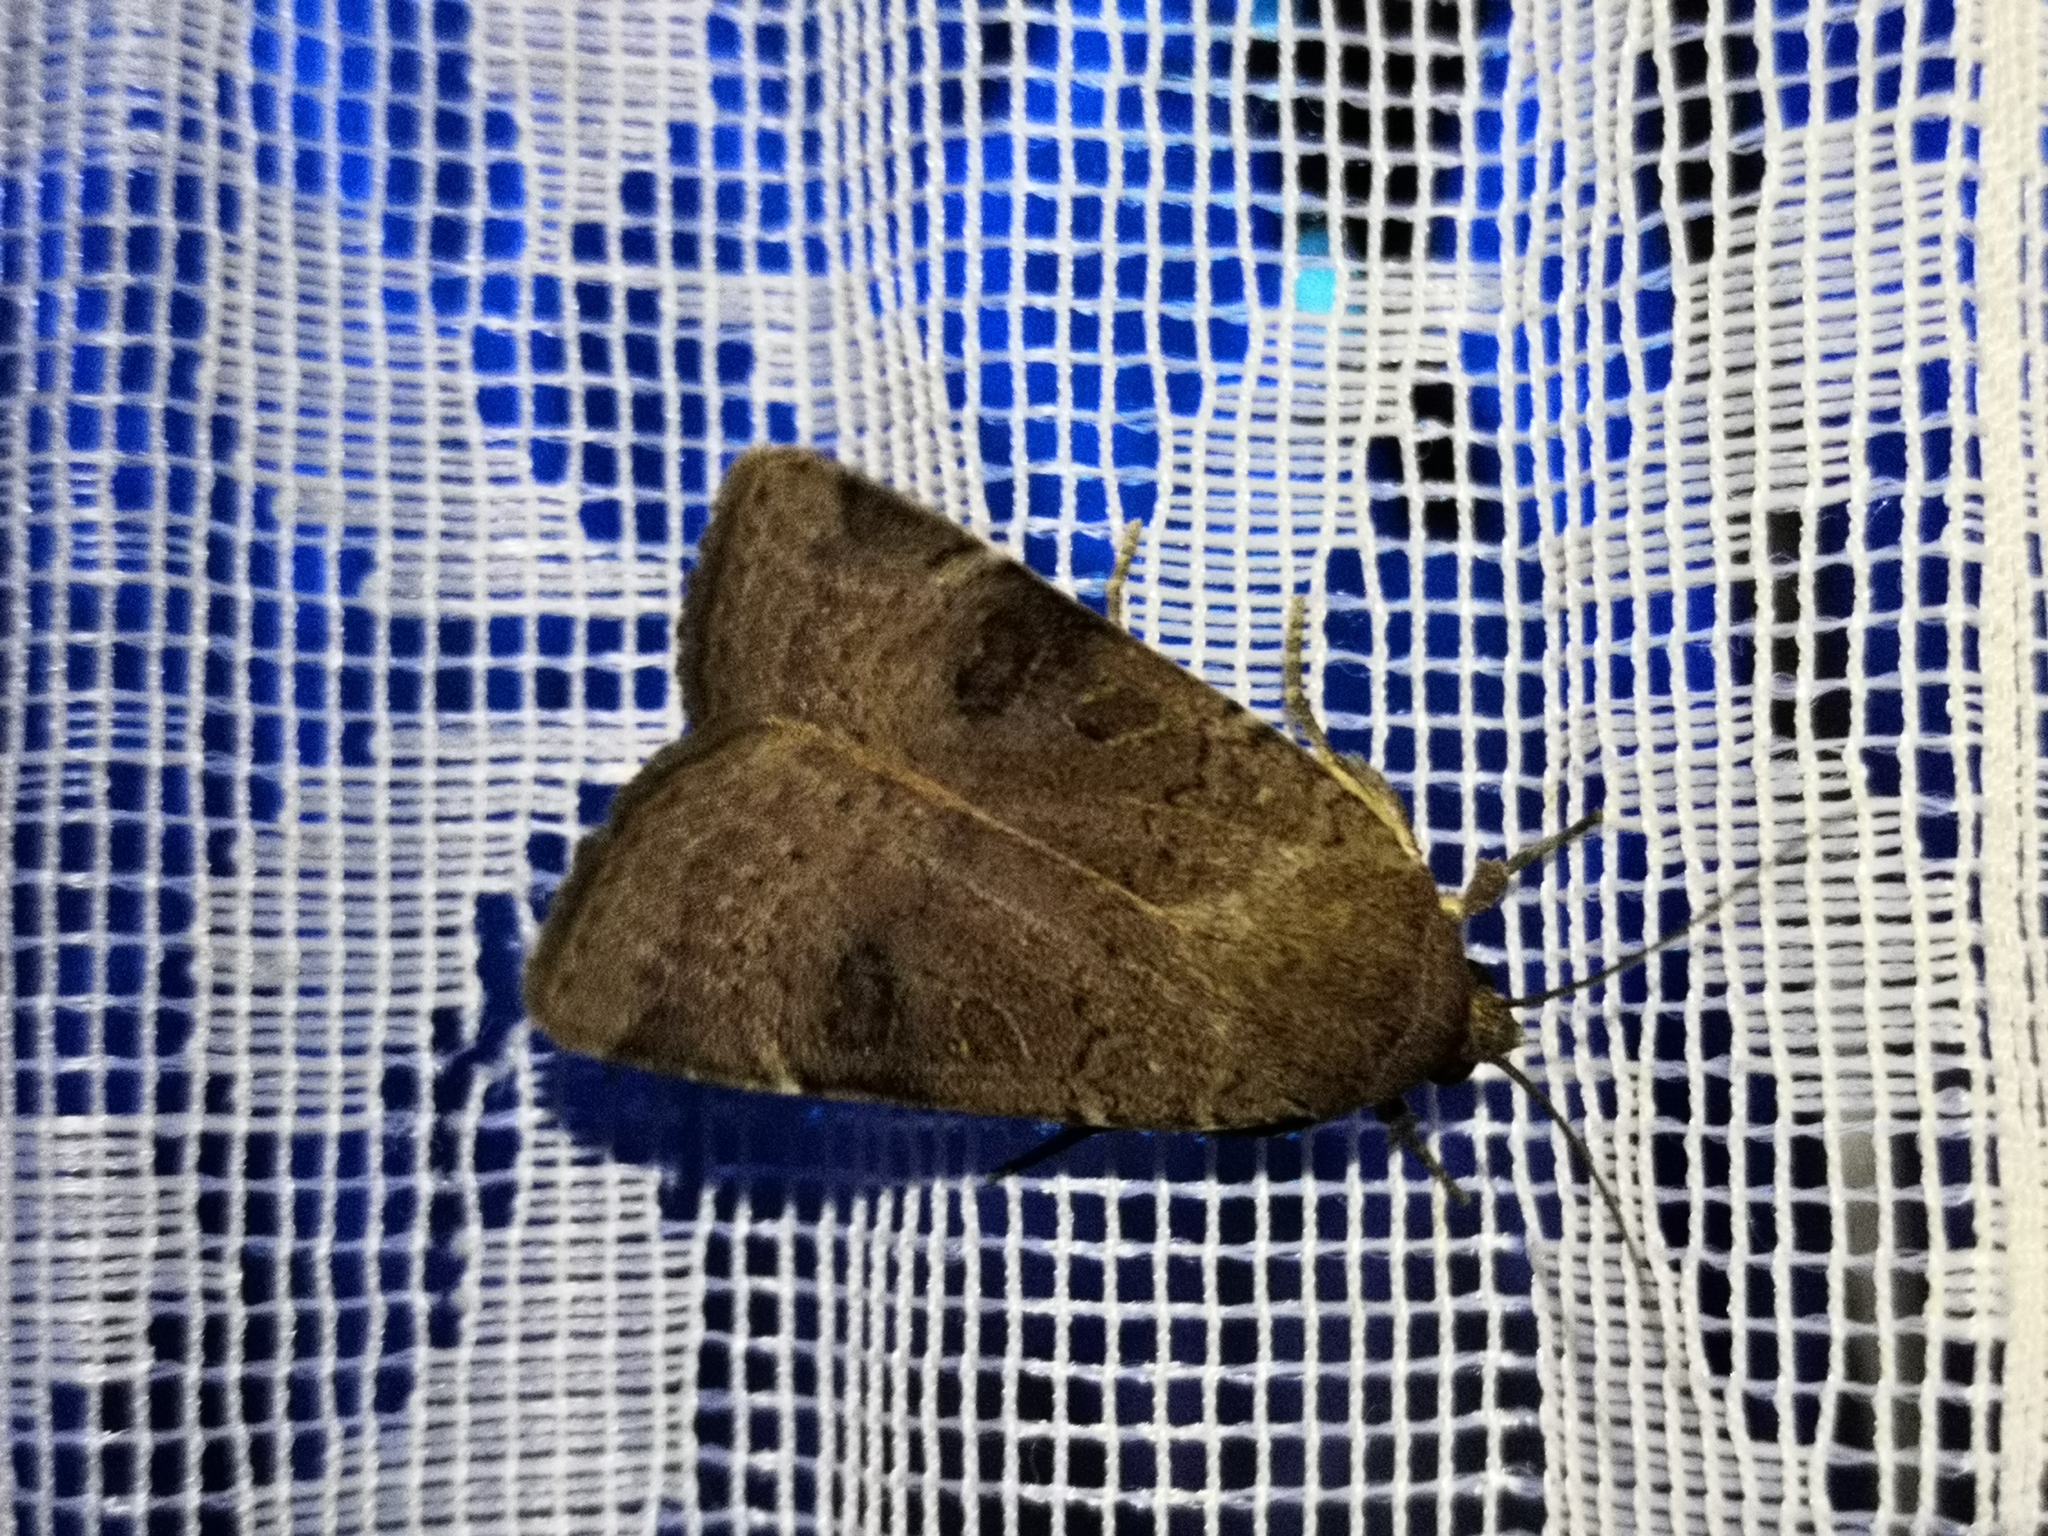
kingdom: Animalia
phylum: Arthropoda
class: Insecta
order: Lepidoptera
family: Noctuidae
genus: Noctua
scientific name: Noctua comes
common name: Lesser yellow underwing
